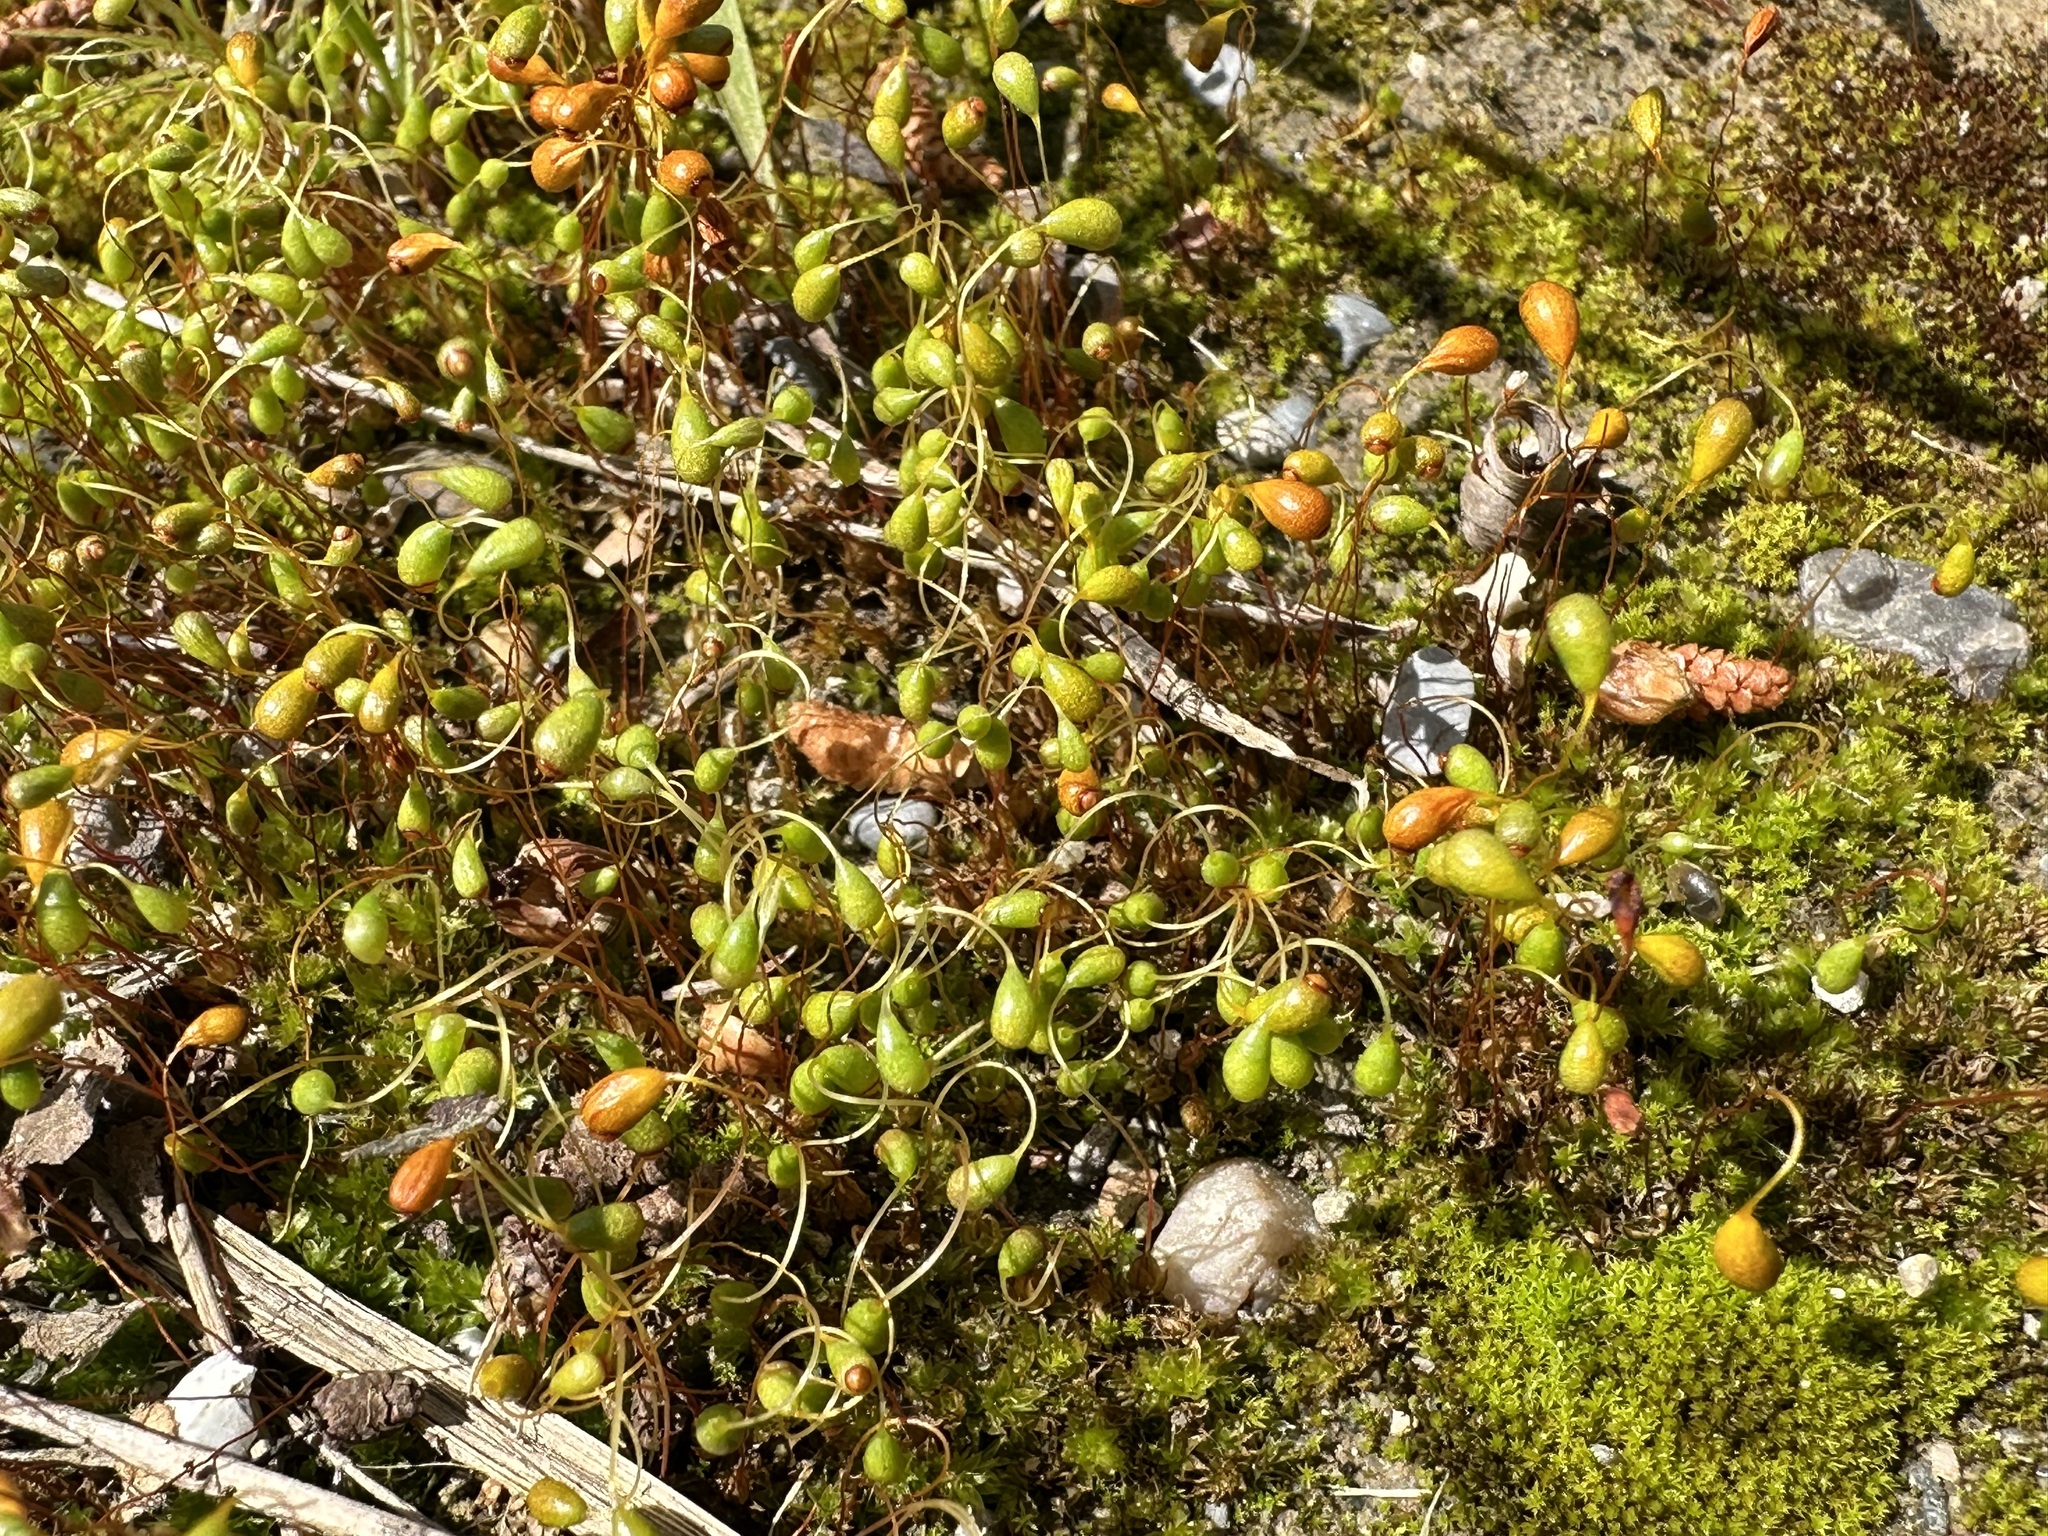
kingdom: Plantae
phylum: Bryophyta
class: Bryopsida
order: Funariales
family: Funariaceae
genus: Funaria
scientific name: Funaria hygrometrica
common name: Common cord moss
